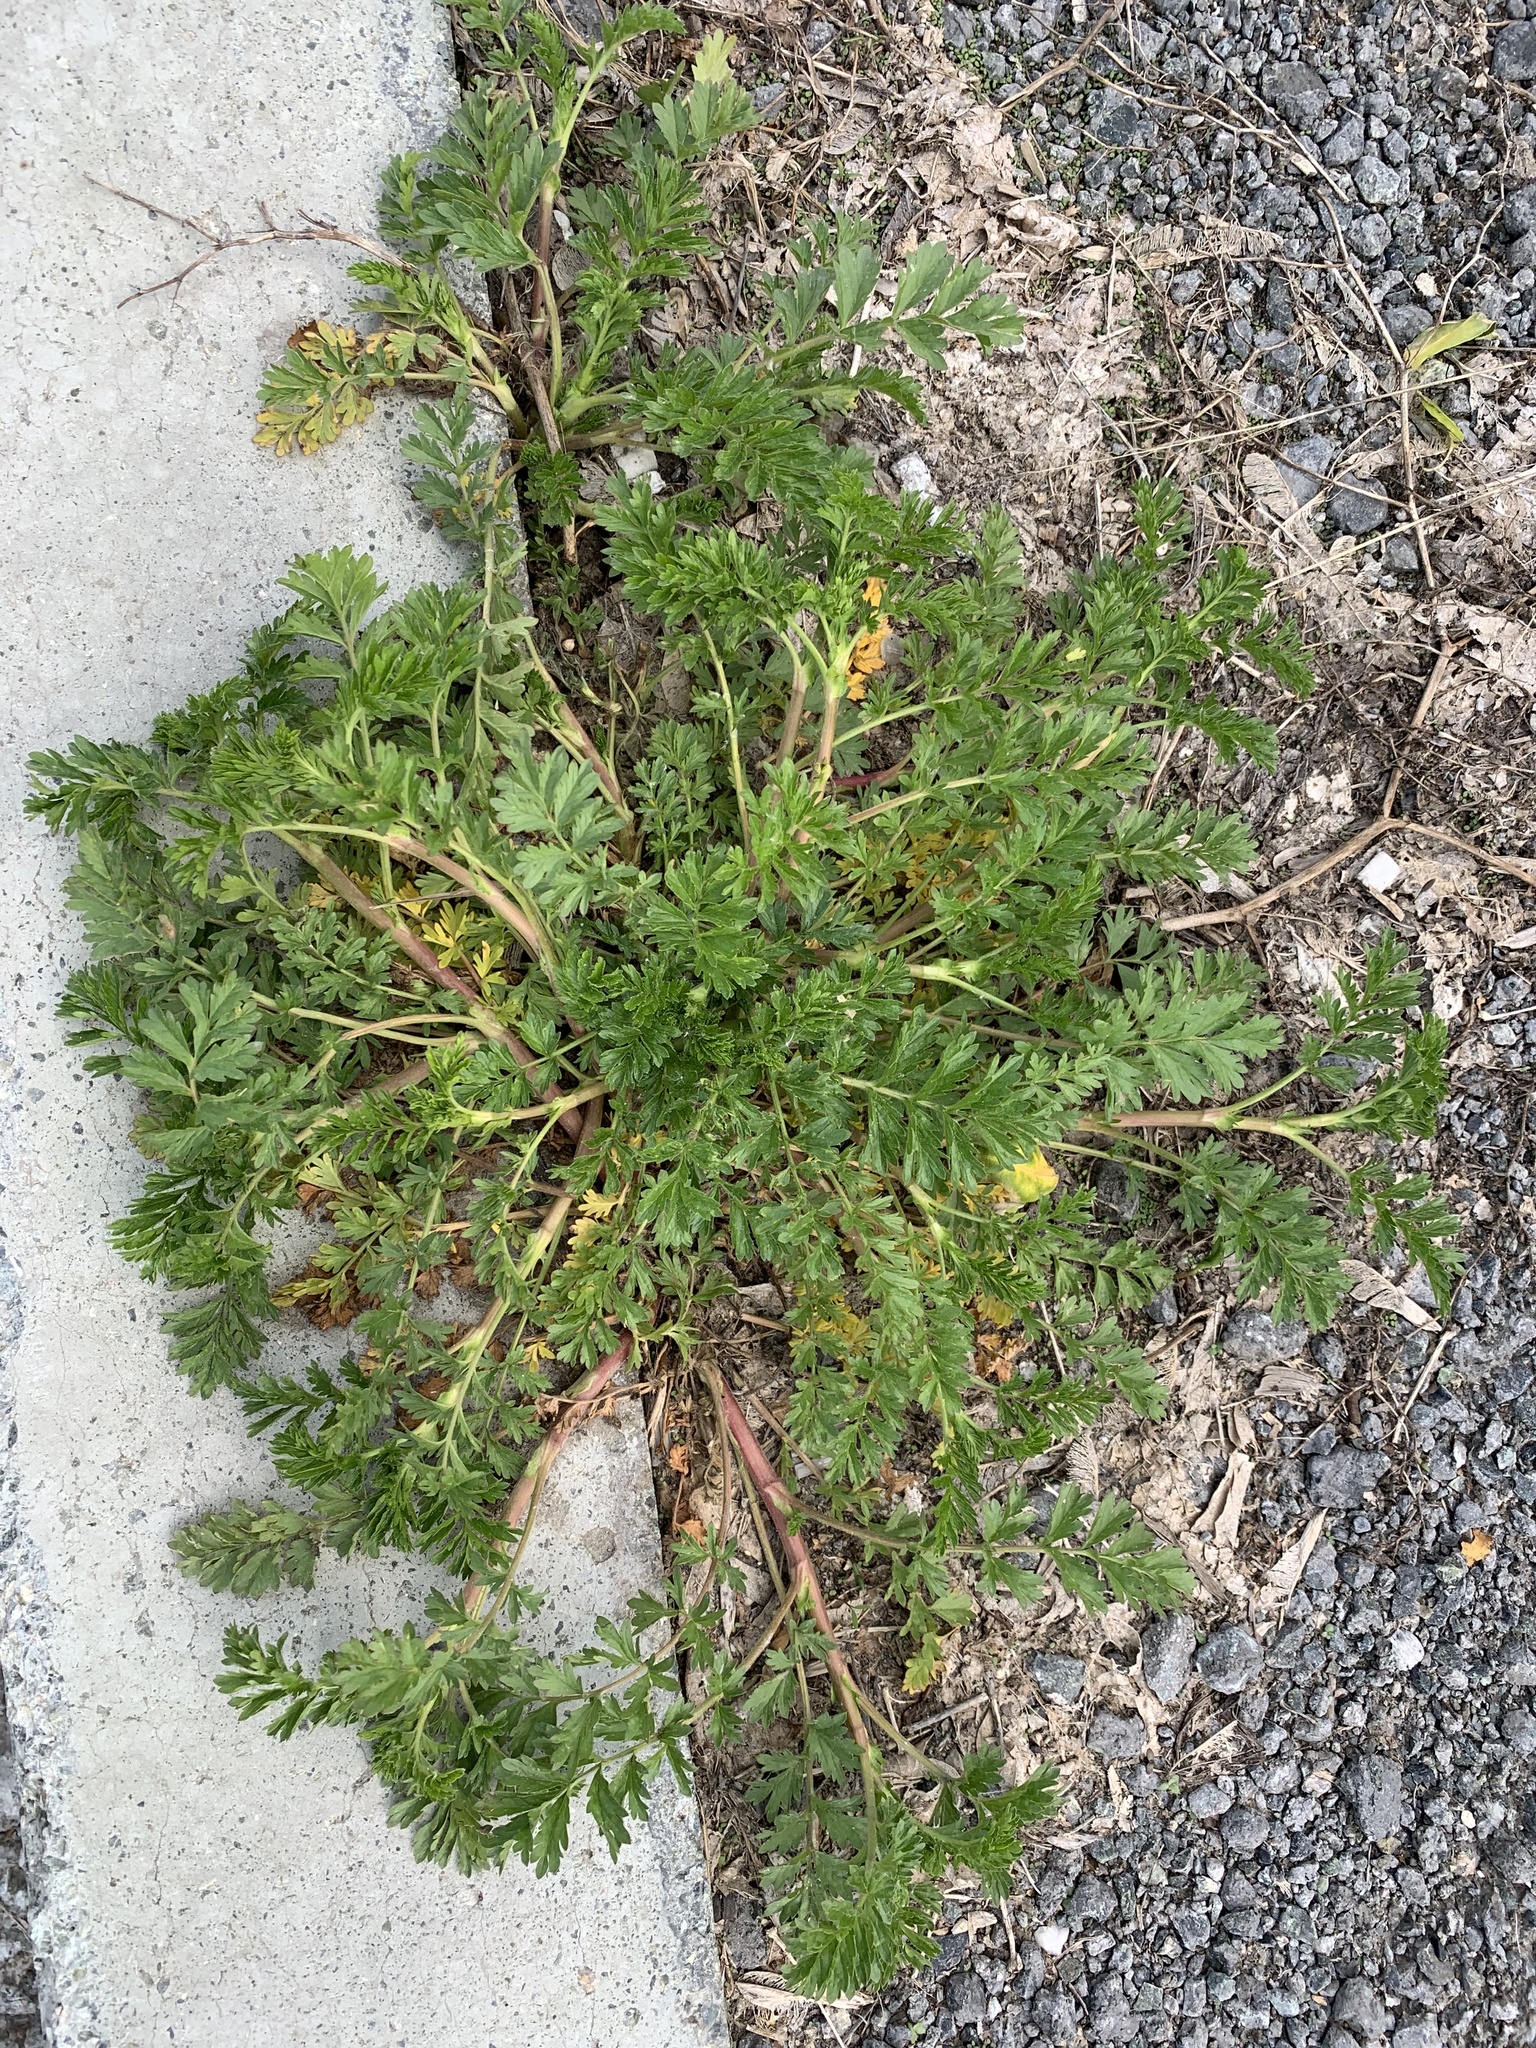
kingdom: Plantae
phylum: Tracheophyta
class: Magnoliopsida
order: Rosales
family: Rosaceae
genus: Potentilla
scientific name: Potentilla supina
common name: Prostrate cinquefoil
